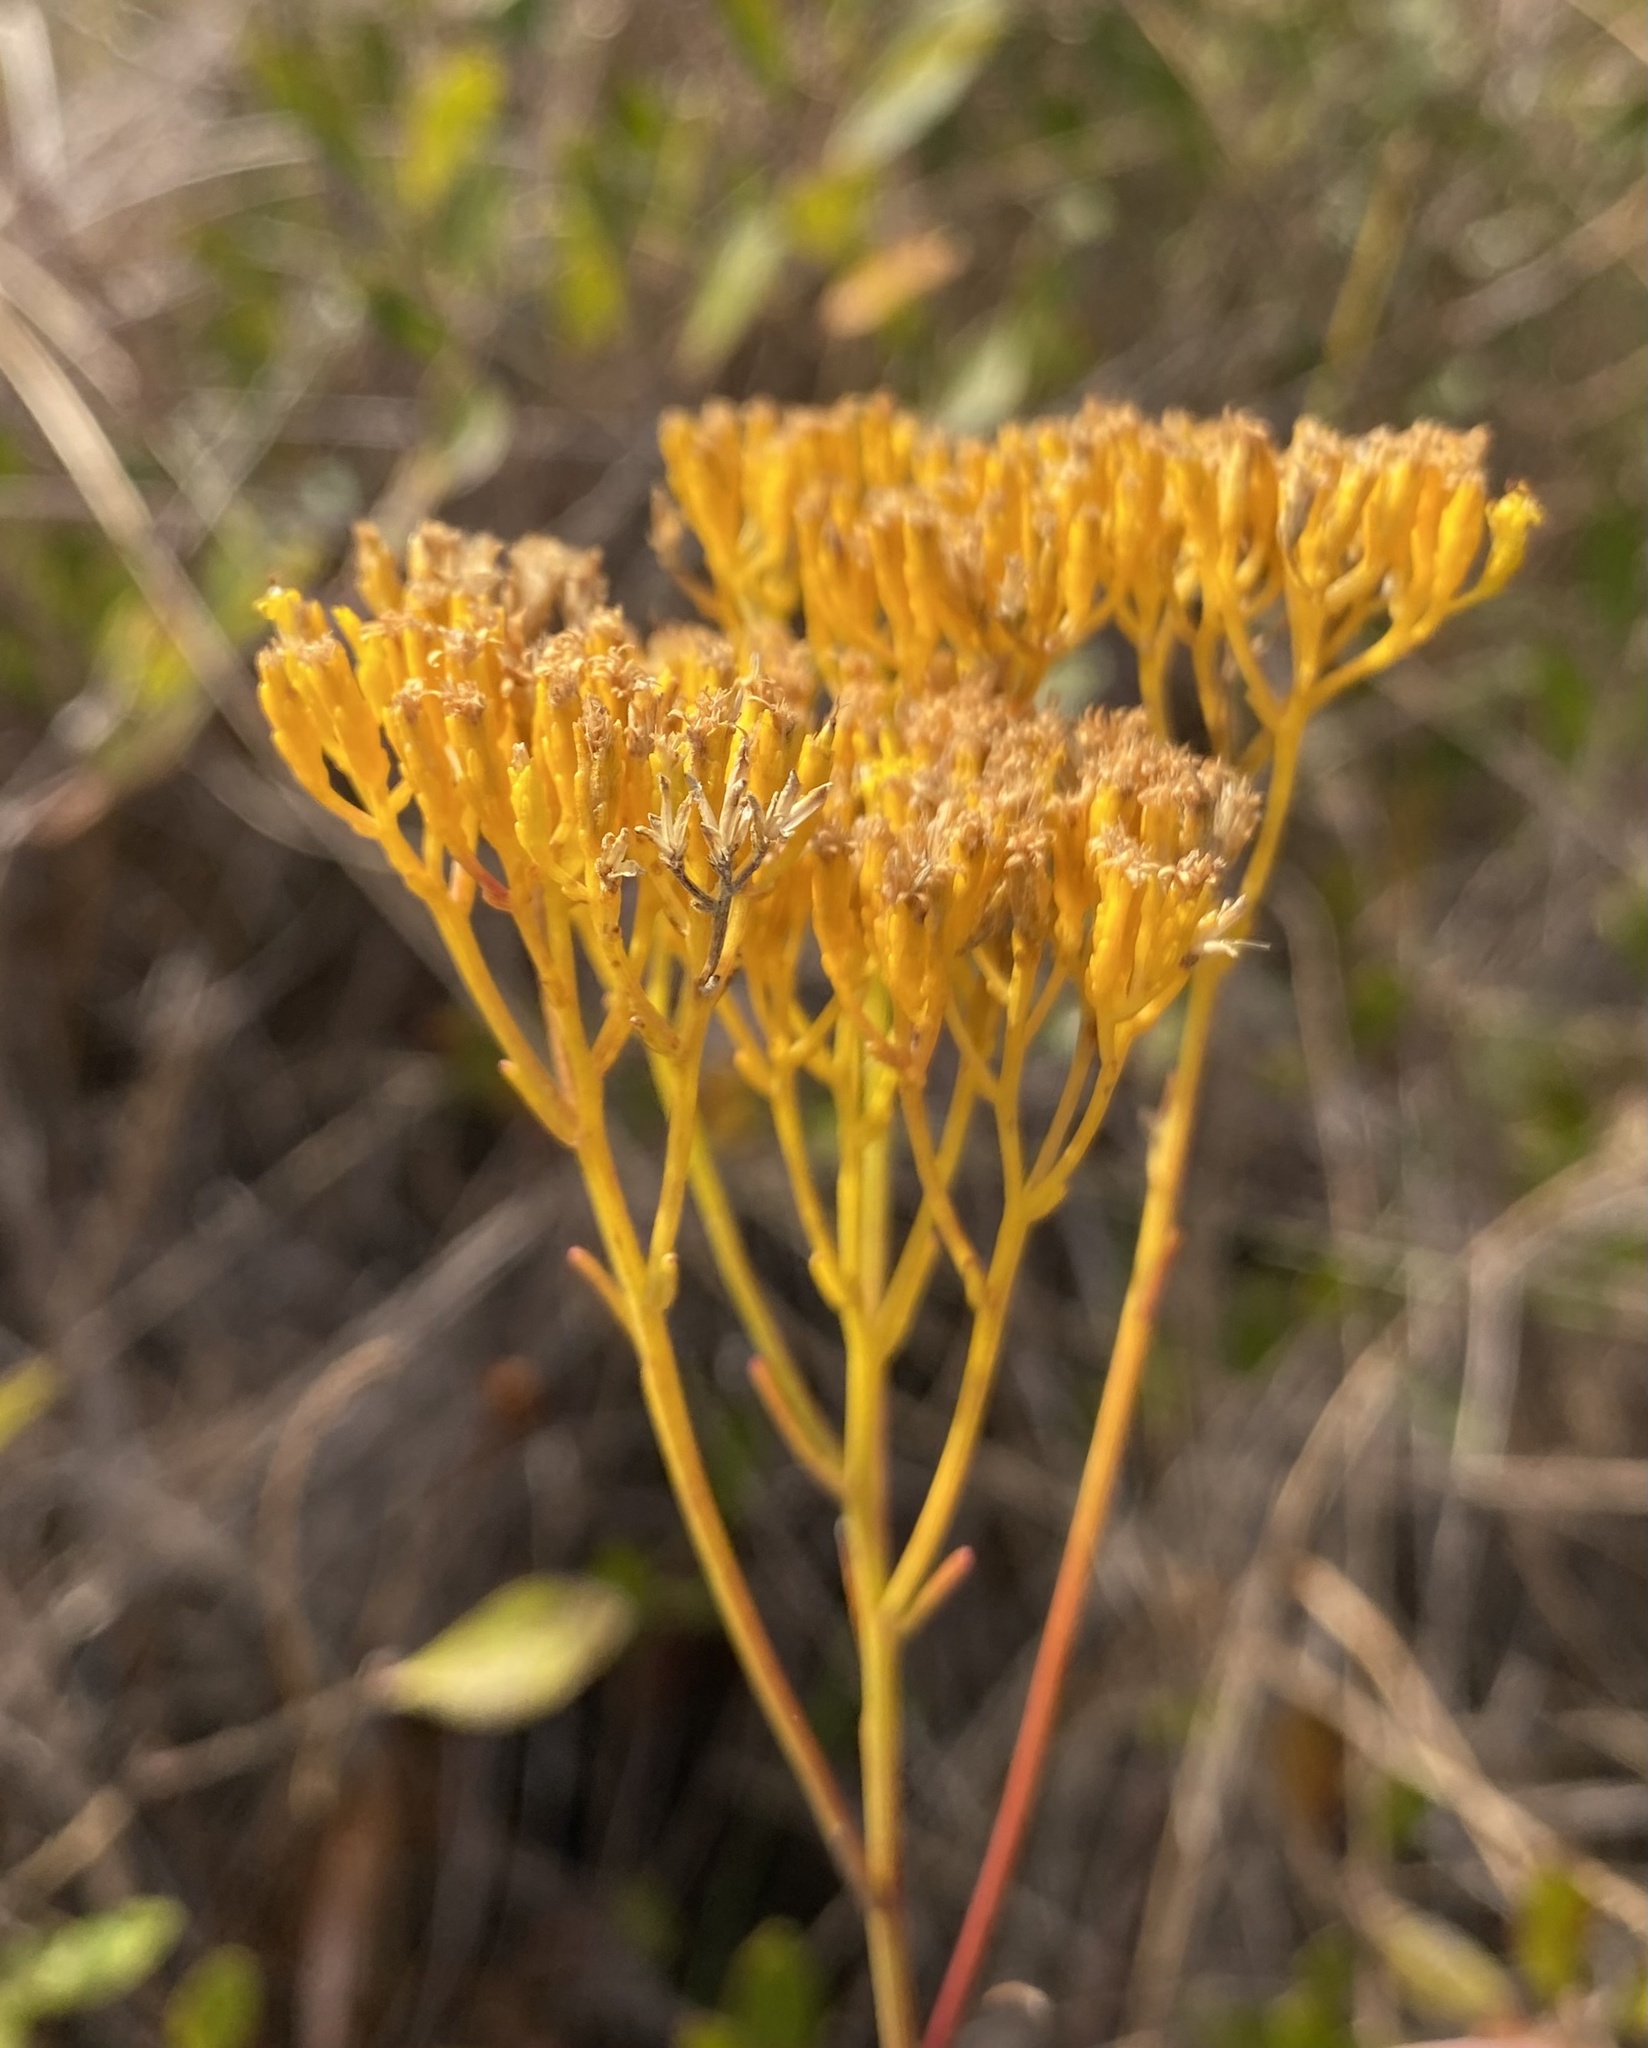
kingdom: Plantae
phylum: Tracheophyta
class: Magnoliopsida
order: Asterales
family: Asteraceae
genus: Bigelowia
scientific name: Bigelowia nudata
